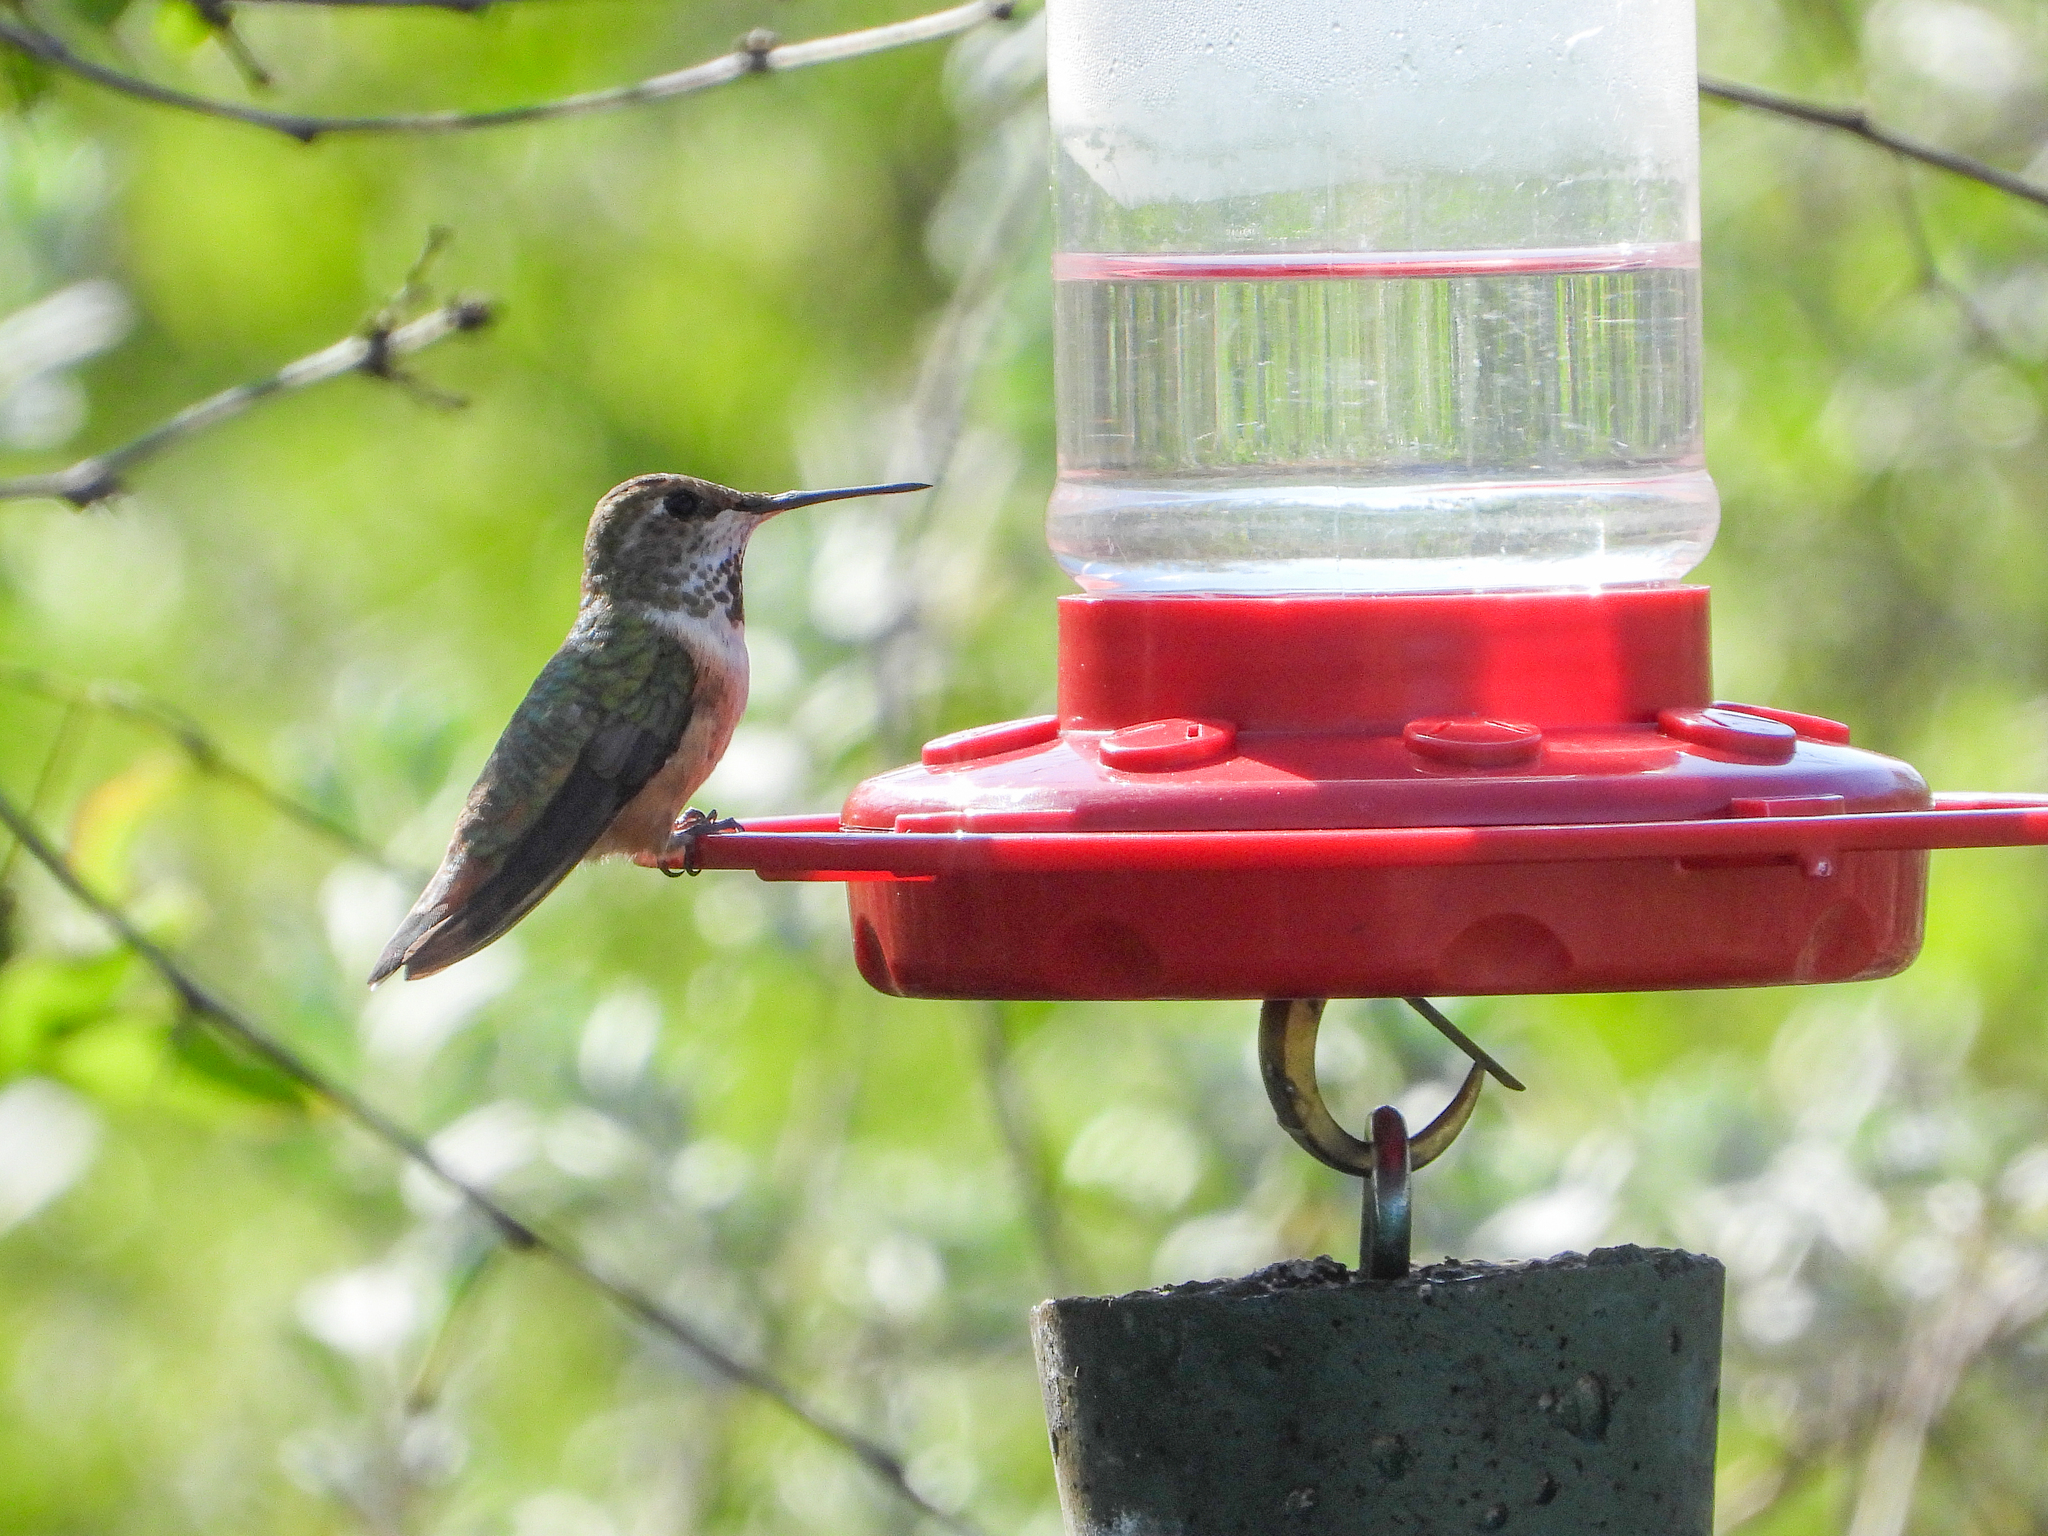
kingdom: Animalia
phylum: Chordata
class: Aves
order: Apodiformes
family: Trochilidae
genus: Selasphorus
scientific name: Selasphorus rufus
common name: Rufous hummingbird
